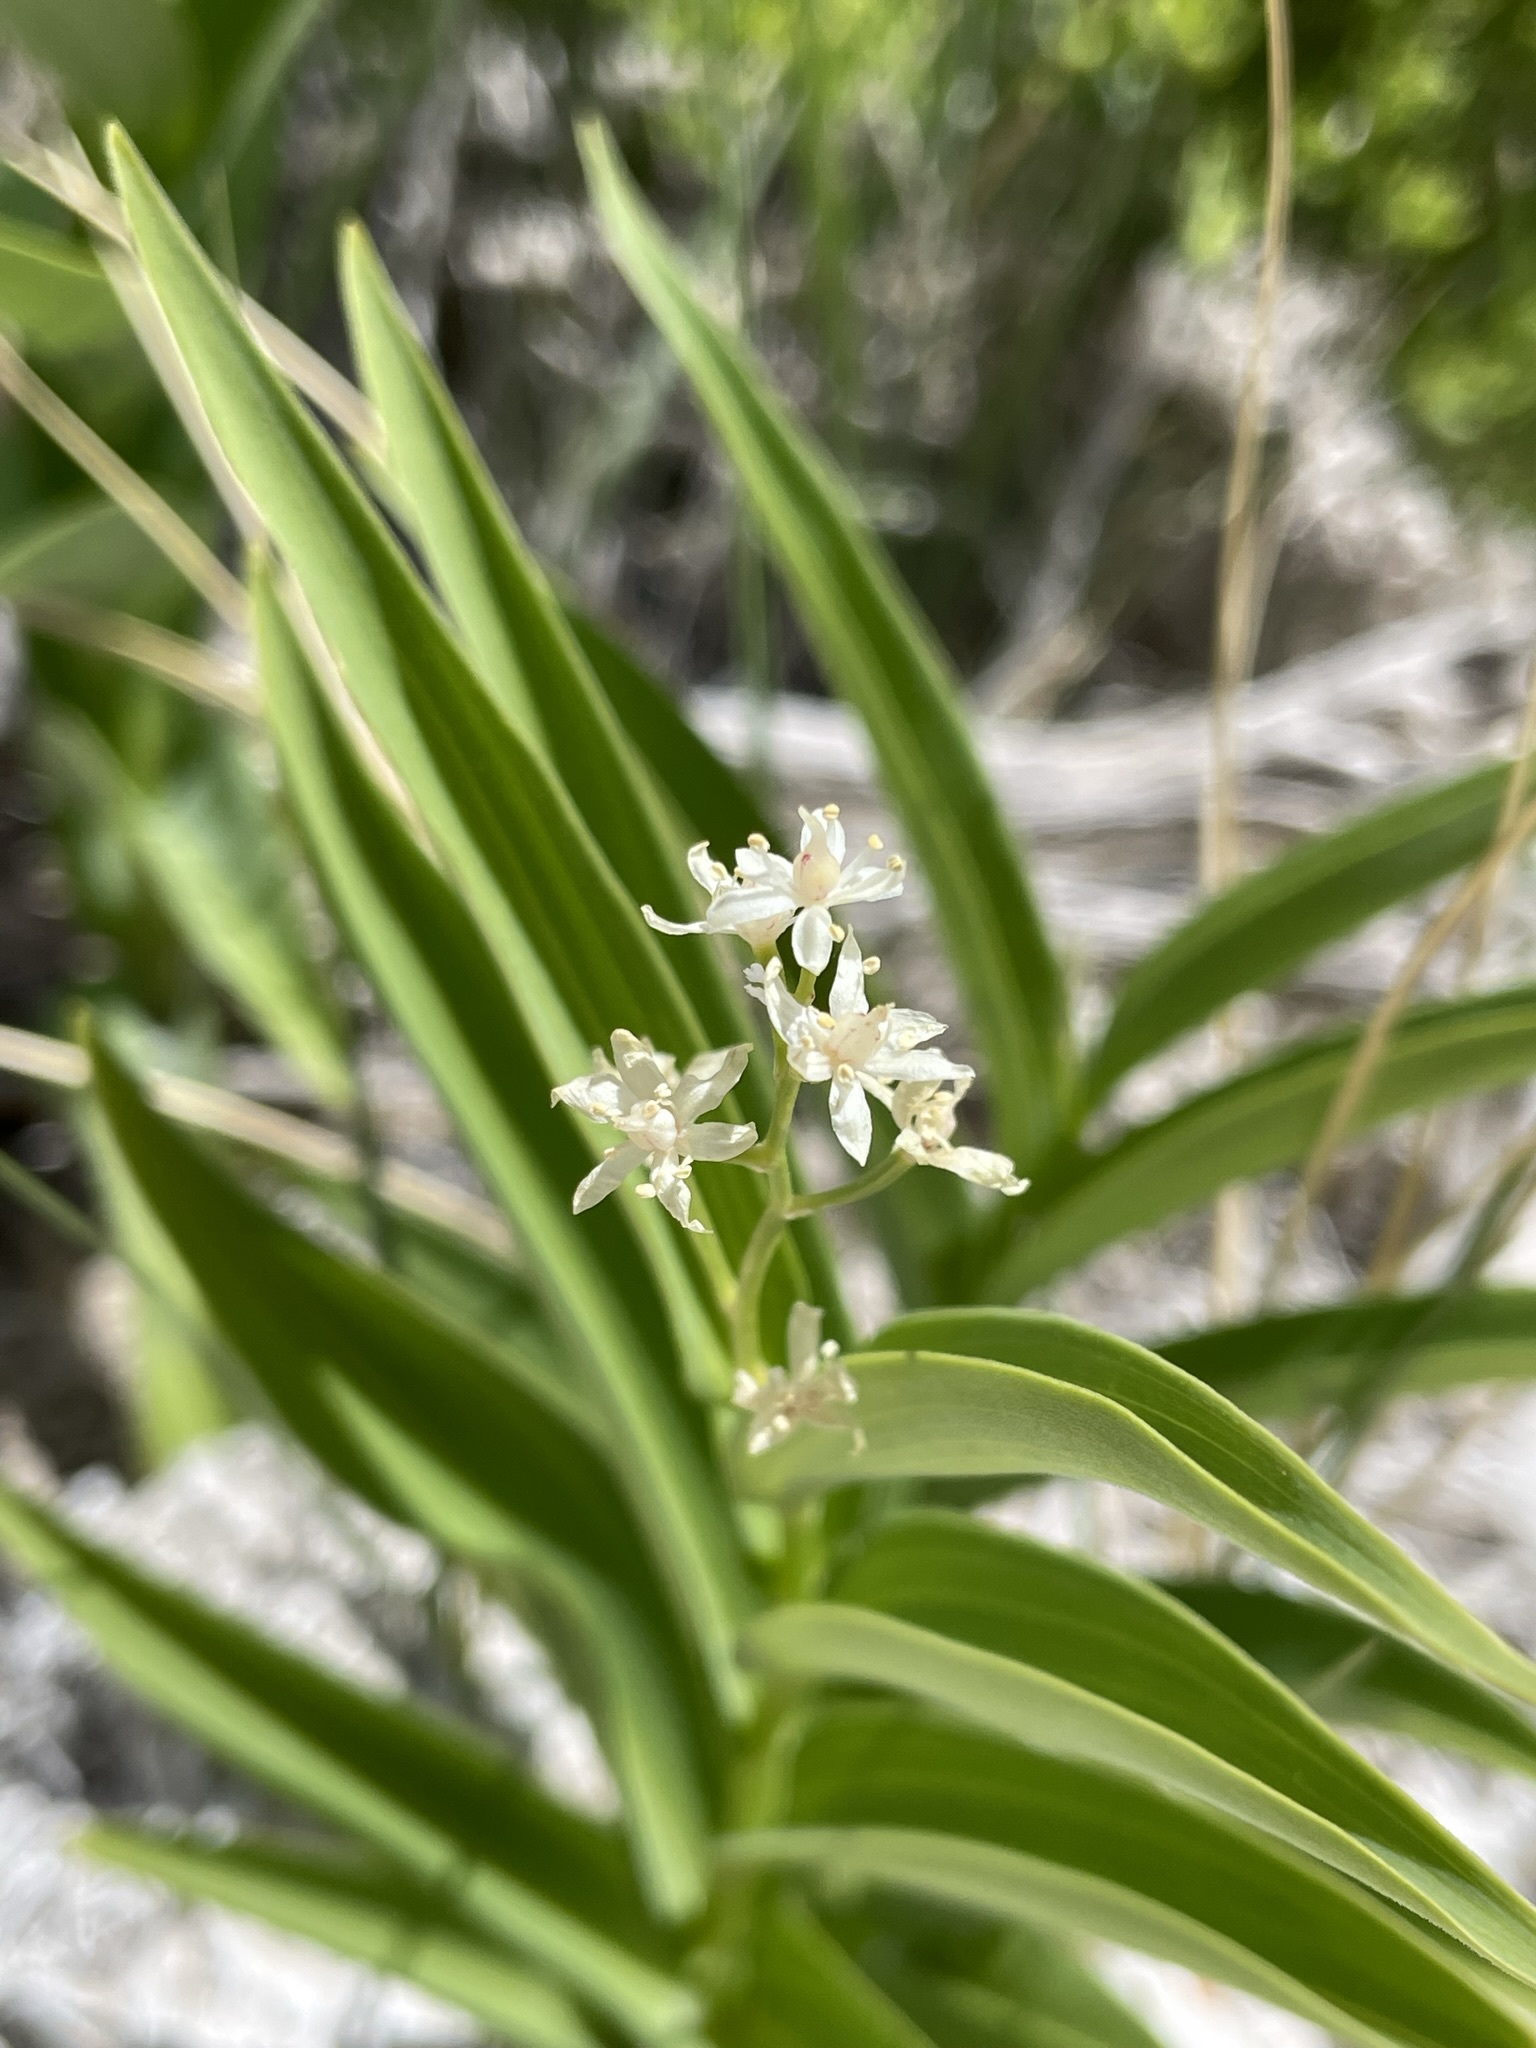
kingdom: Plantae
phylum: Tracheophyta
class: Liliopsida
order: Asparagales
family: Asparagaceae
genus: Maianthemum
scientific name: Maianthemum stellatum
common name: Little false solomon's seal
